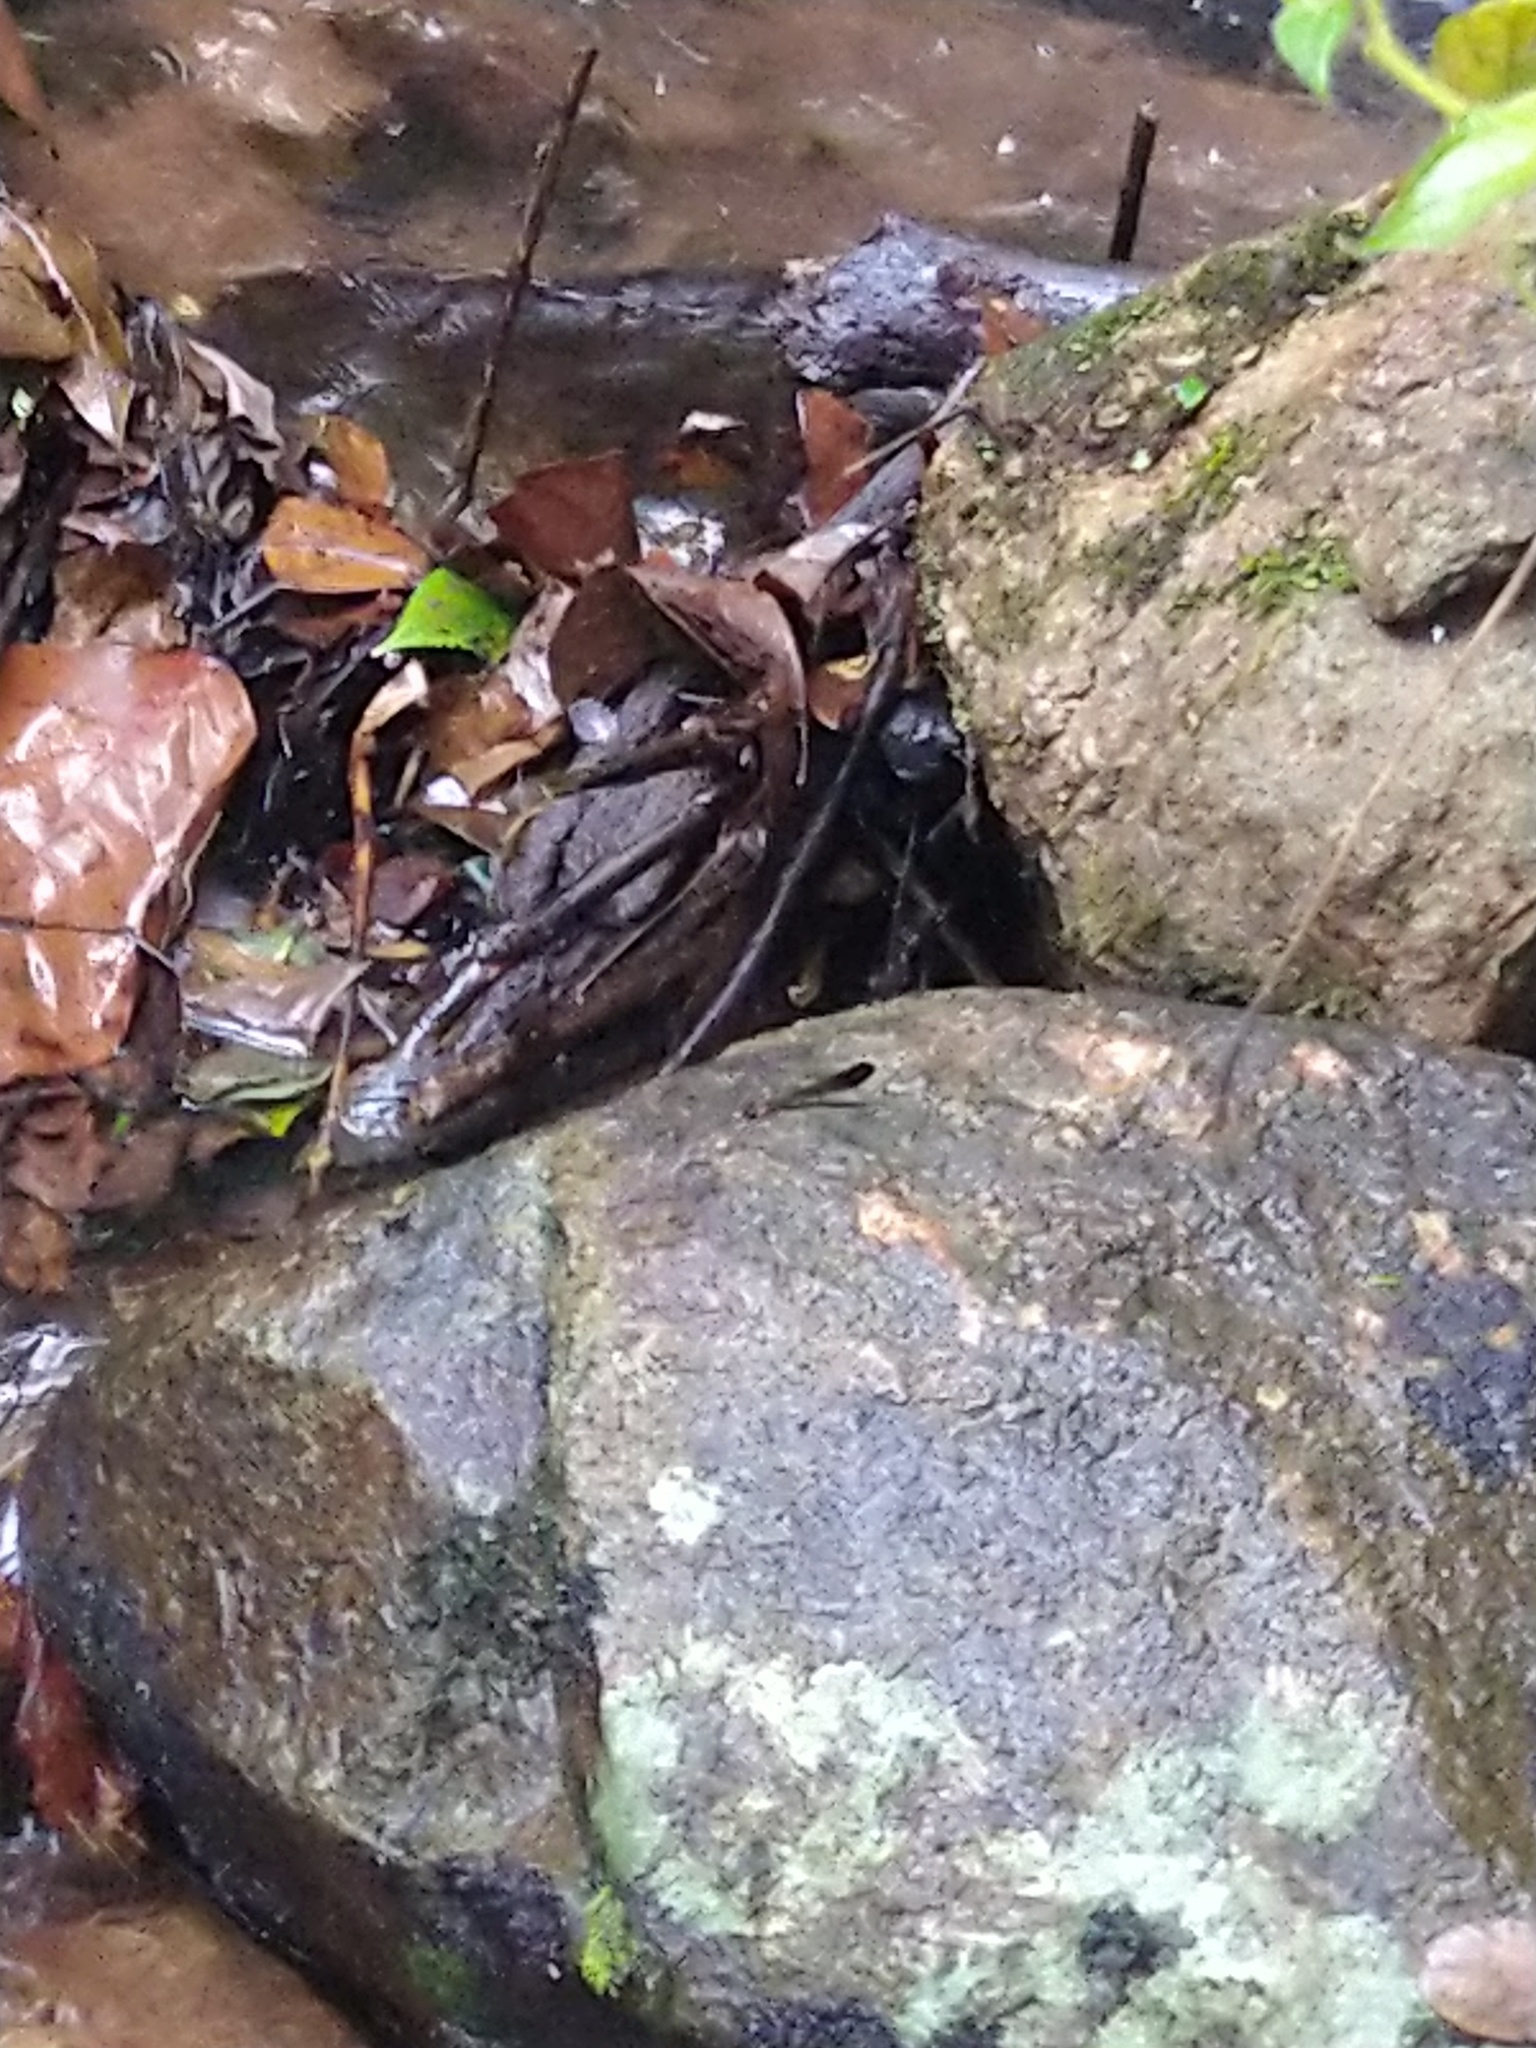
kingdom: Animalia
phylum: Arthropoda
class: Insecta
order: Odonata
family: Chlorocyphidae
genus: Heliocypha
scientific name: Heliocypha bisignata
